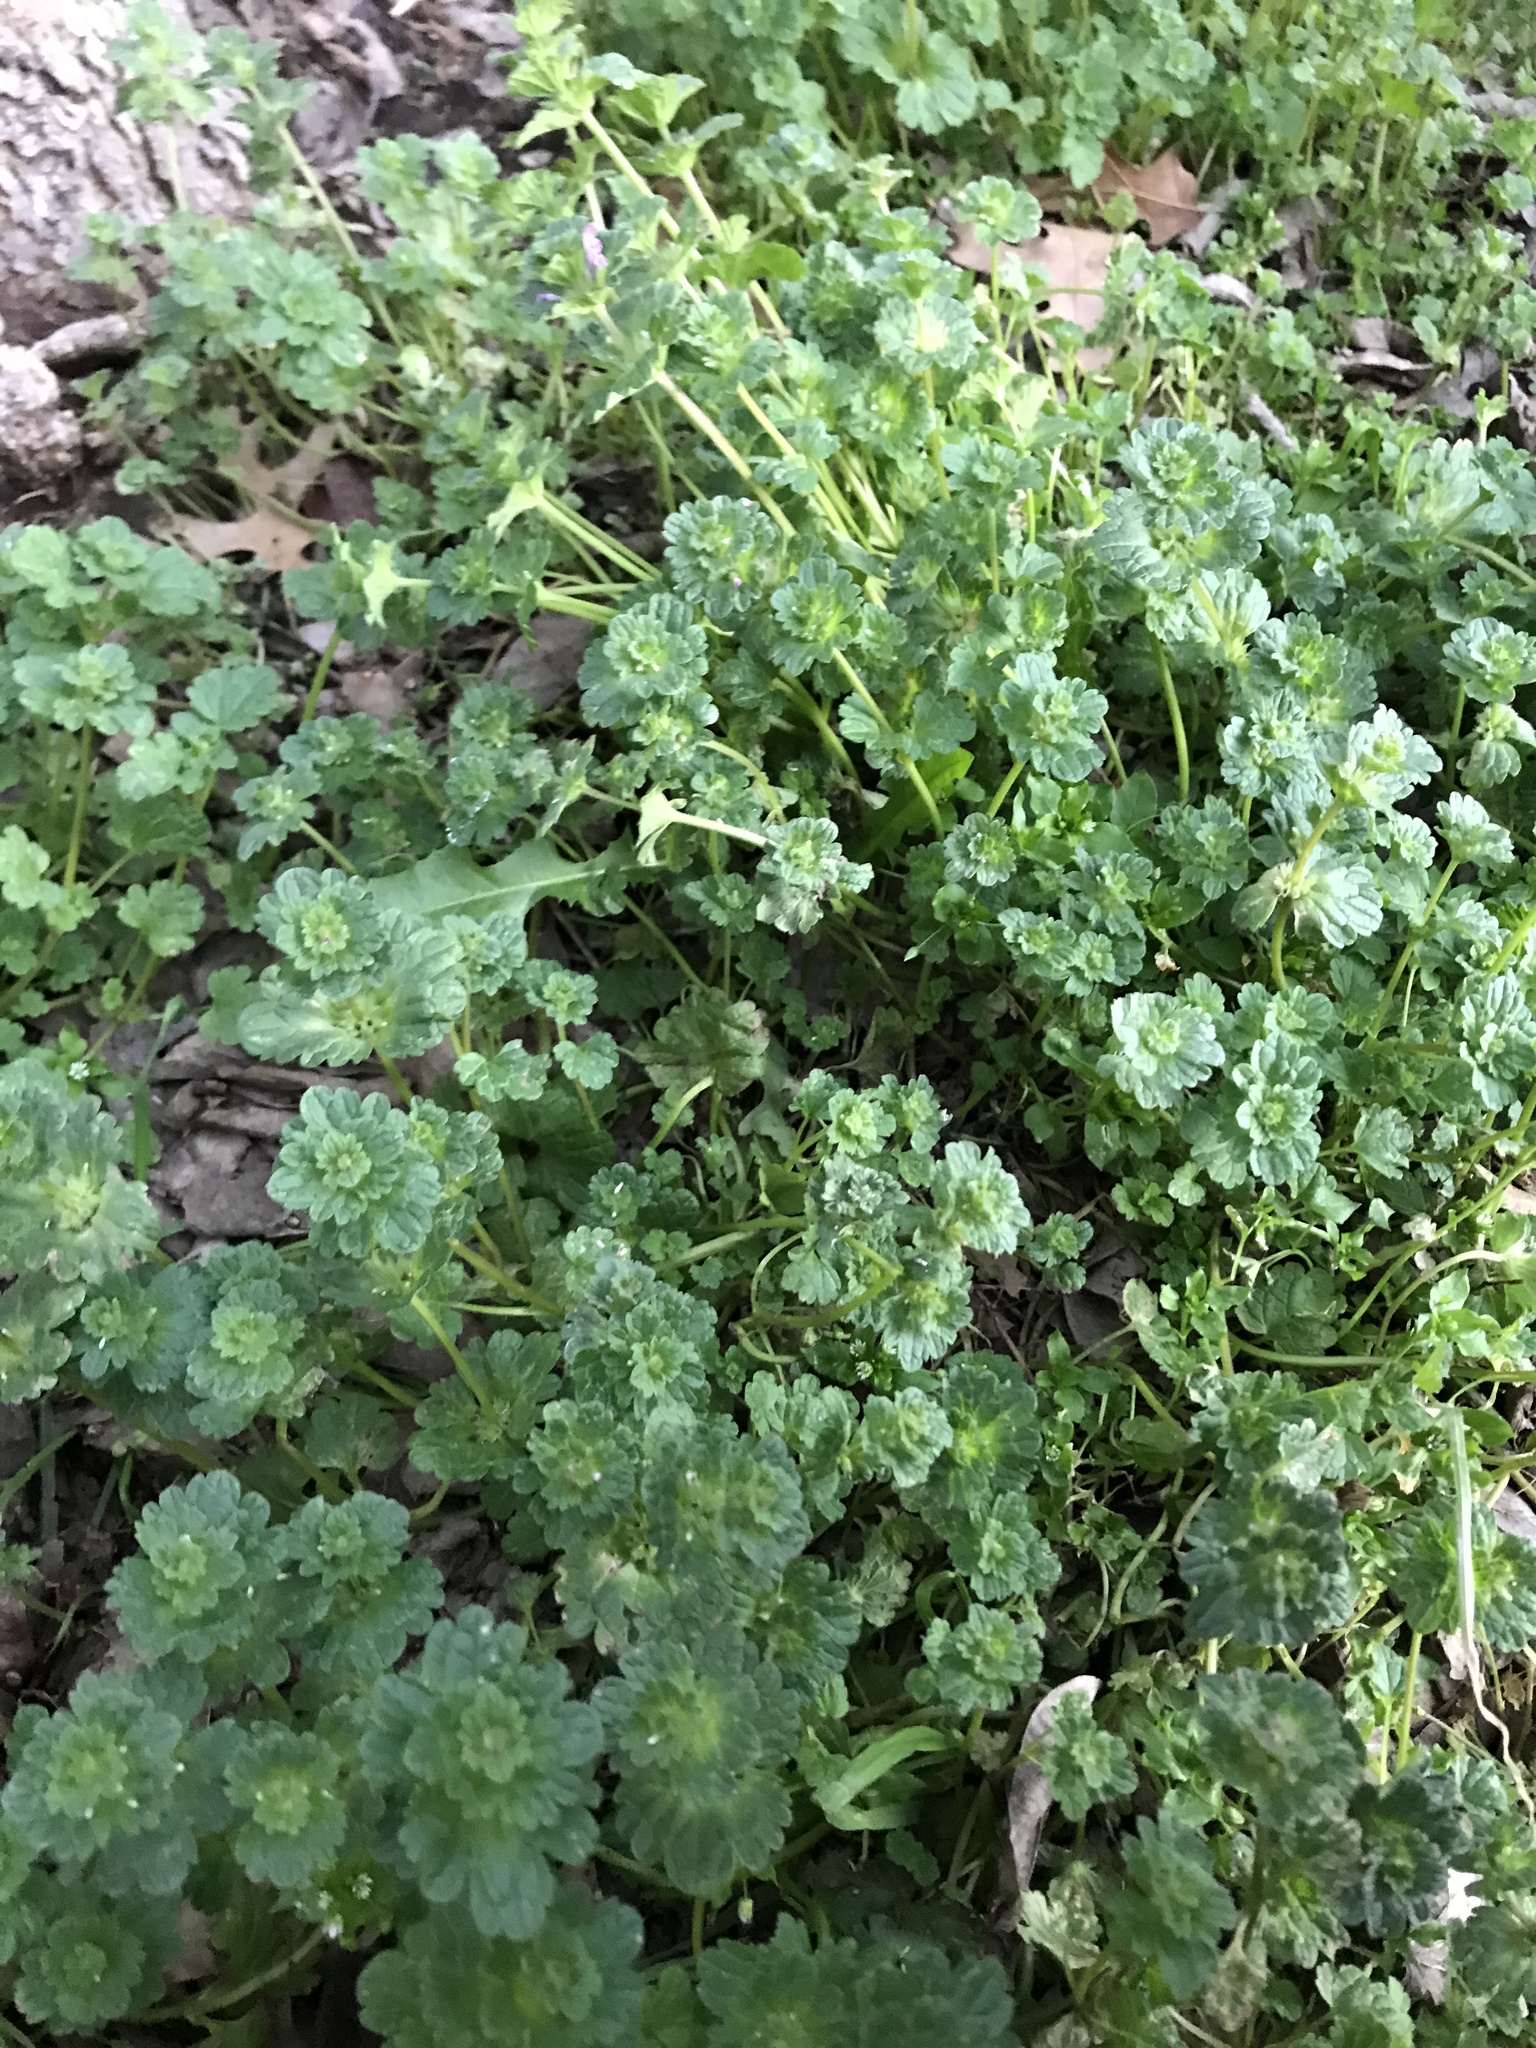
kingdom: Plantae
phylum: Tracheophyta
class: Magnoliopsida
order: Lamiales
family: Lamiaceae
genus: Lamium
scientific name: Lamium amplexicaule
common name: Henbit dead-nettle
